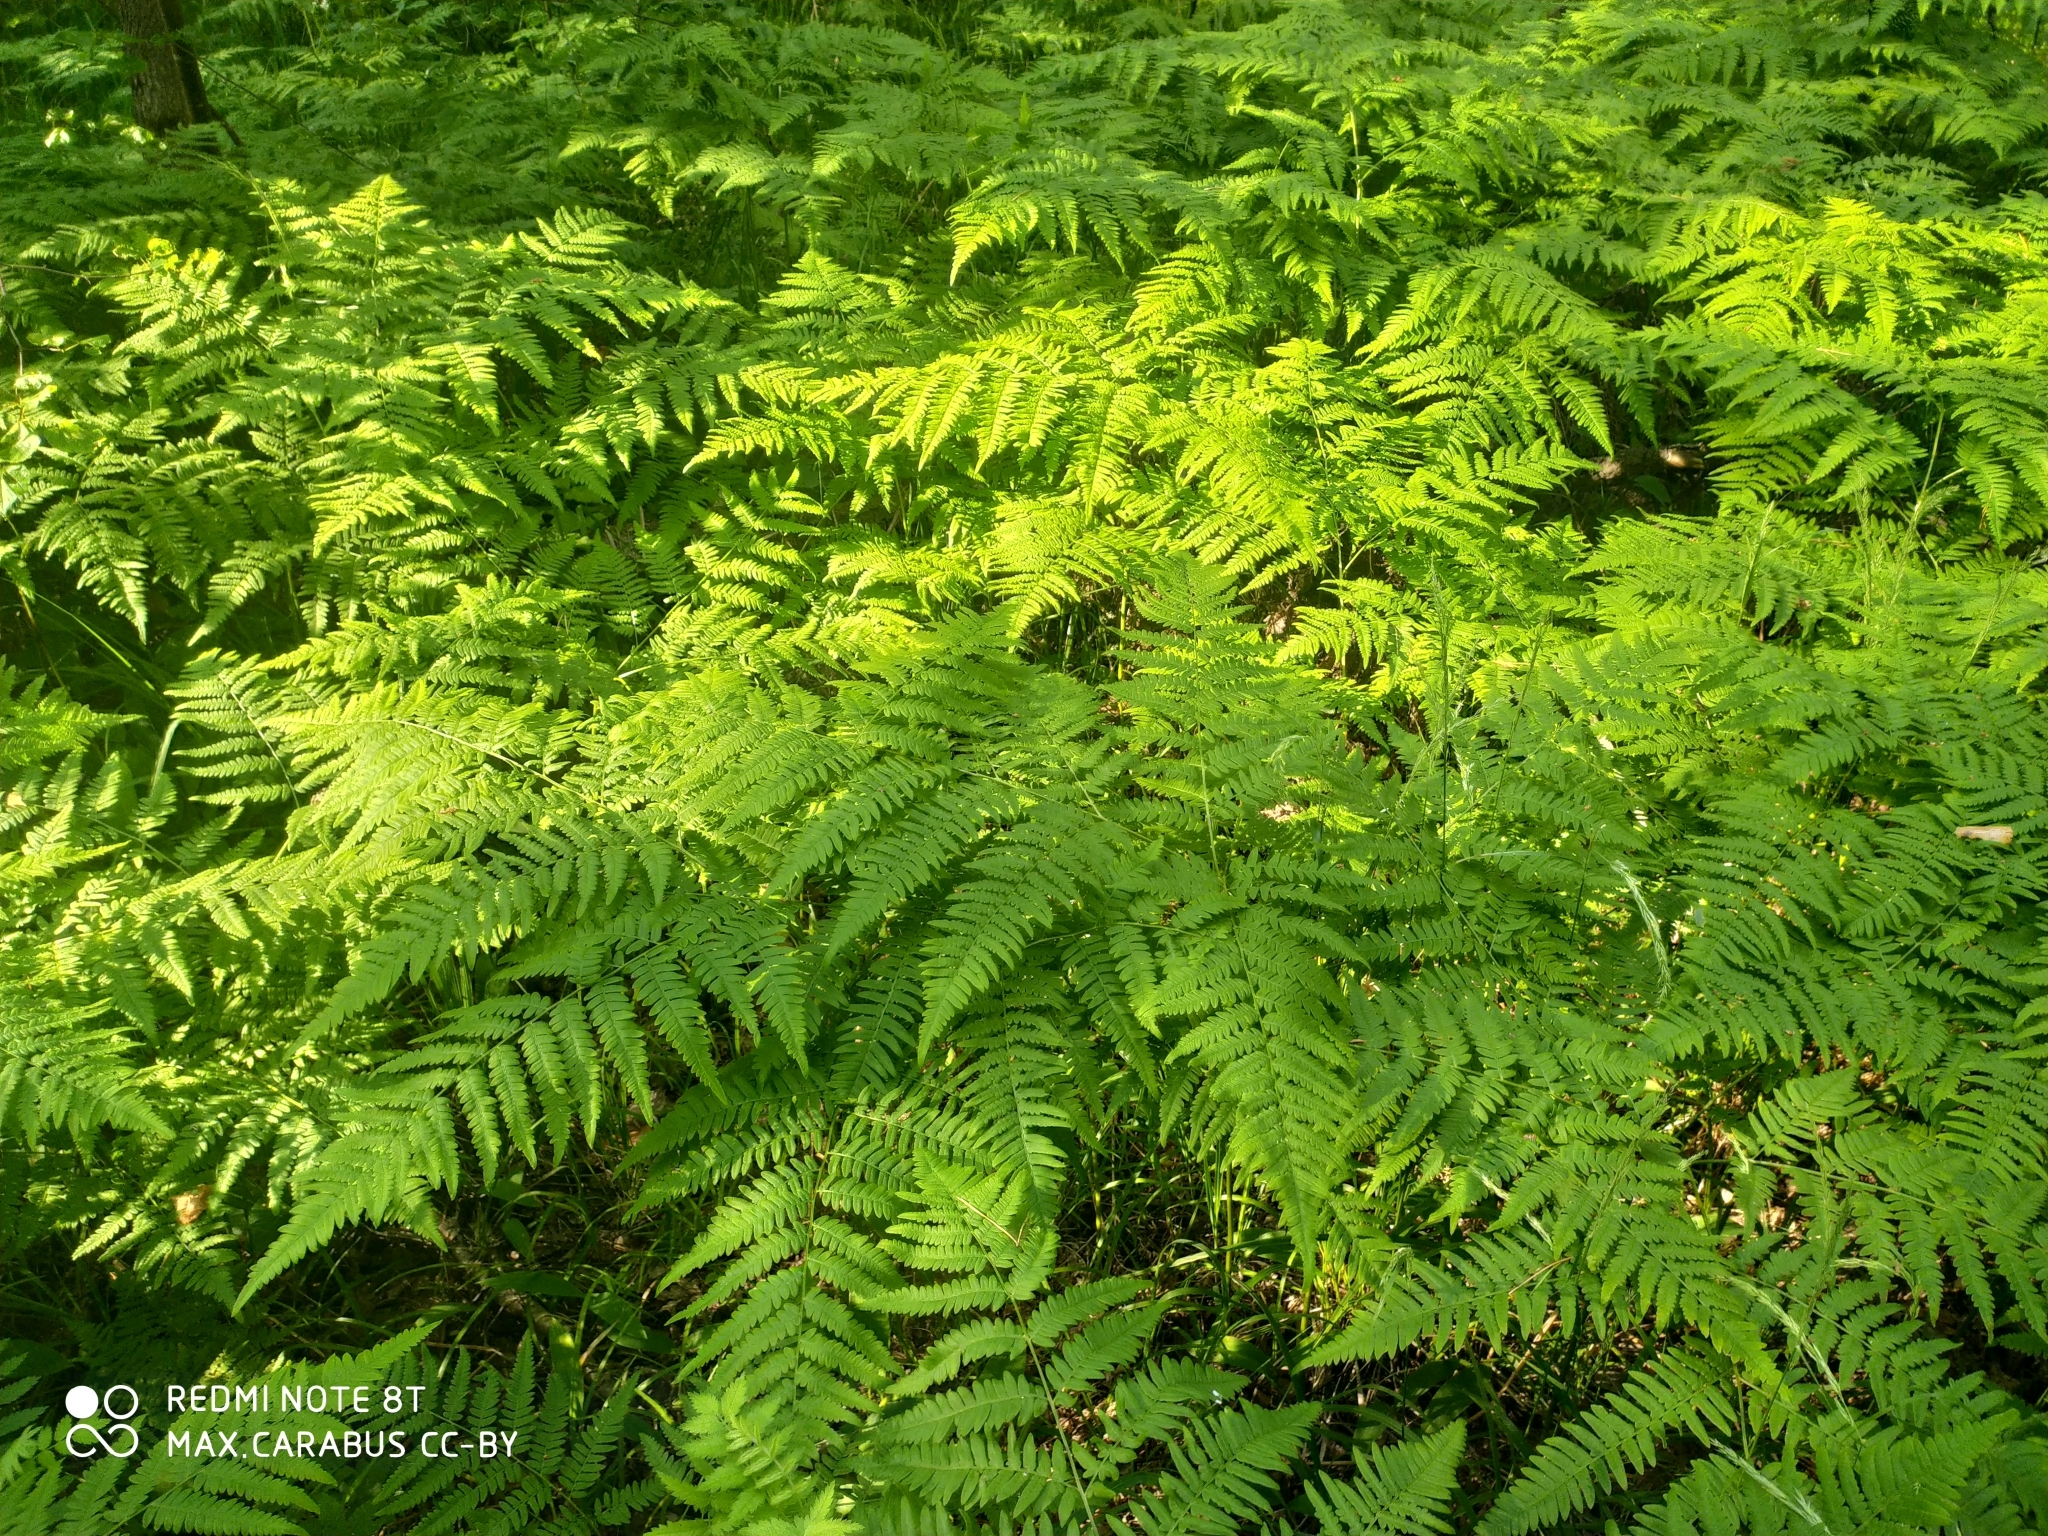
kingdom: Plantae
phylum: Tracheophyta
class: Polypodiopsida
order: Polypodiales
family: Dennstaedtiaceae
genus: Pteridium
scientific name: Pteridium aquilinum
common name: Bracken
